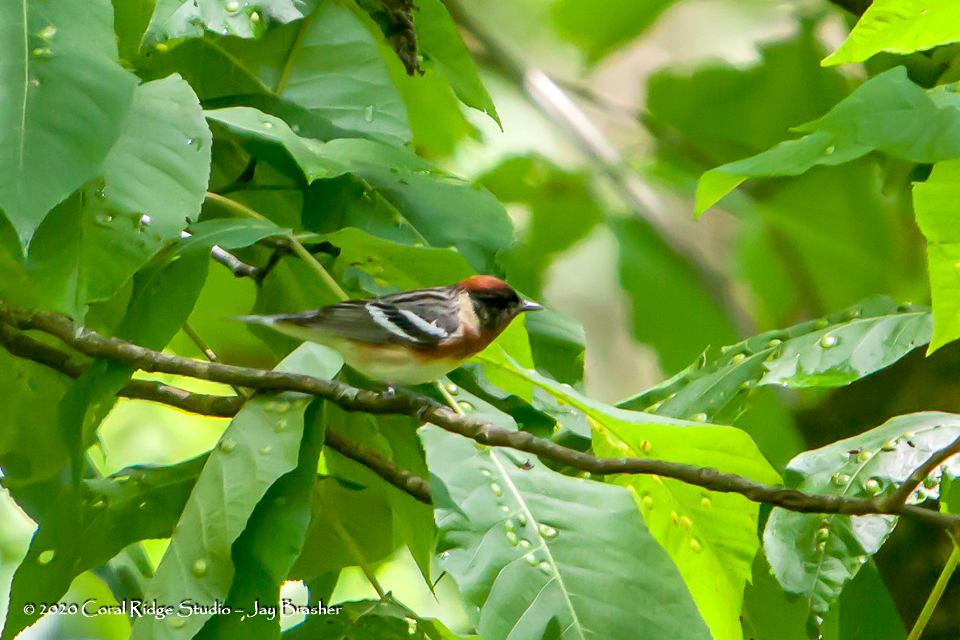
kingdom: Animalia
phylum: Chordata
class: Aves
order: Passeriformes
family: Parulidae
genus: Setophaga
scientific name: Setophaga castanea
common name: Bay-breasted warbler
